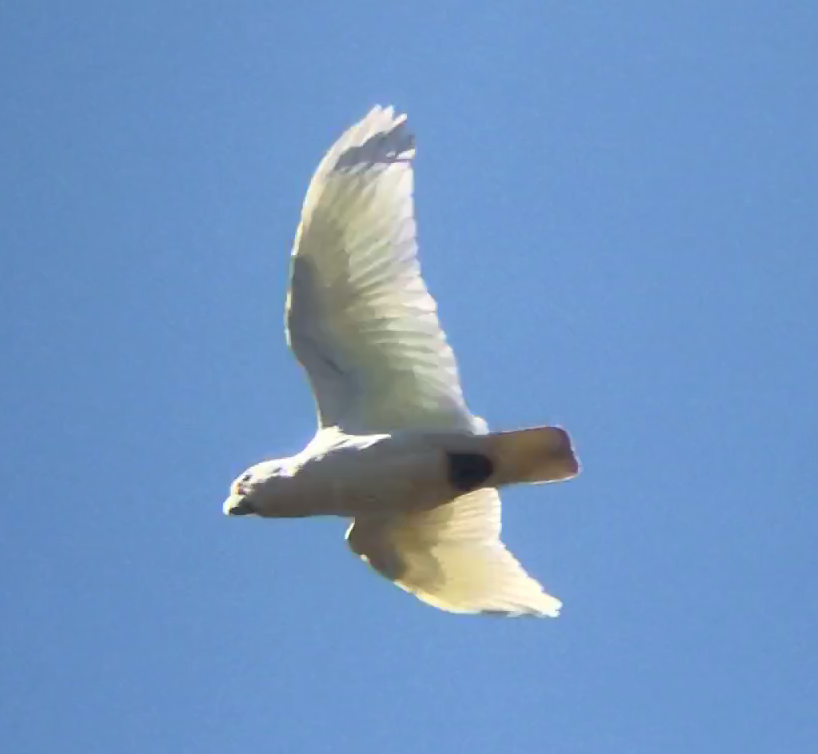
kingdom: Animalia
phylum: Chordata
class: Aves
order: Psittaciformes
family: Psittacidae
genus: Cacatua
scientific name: Cacatua sanguinea
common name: Little corella
